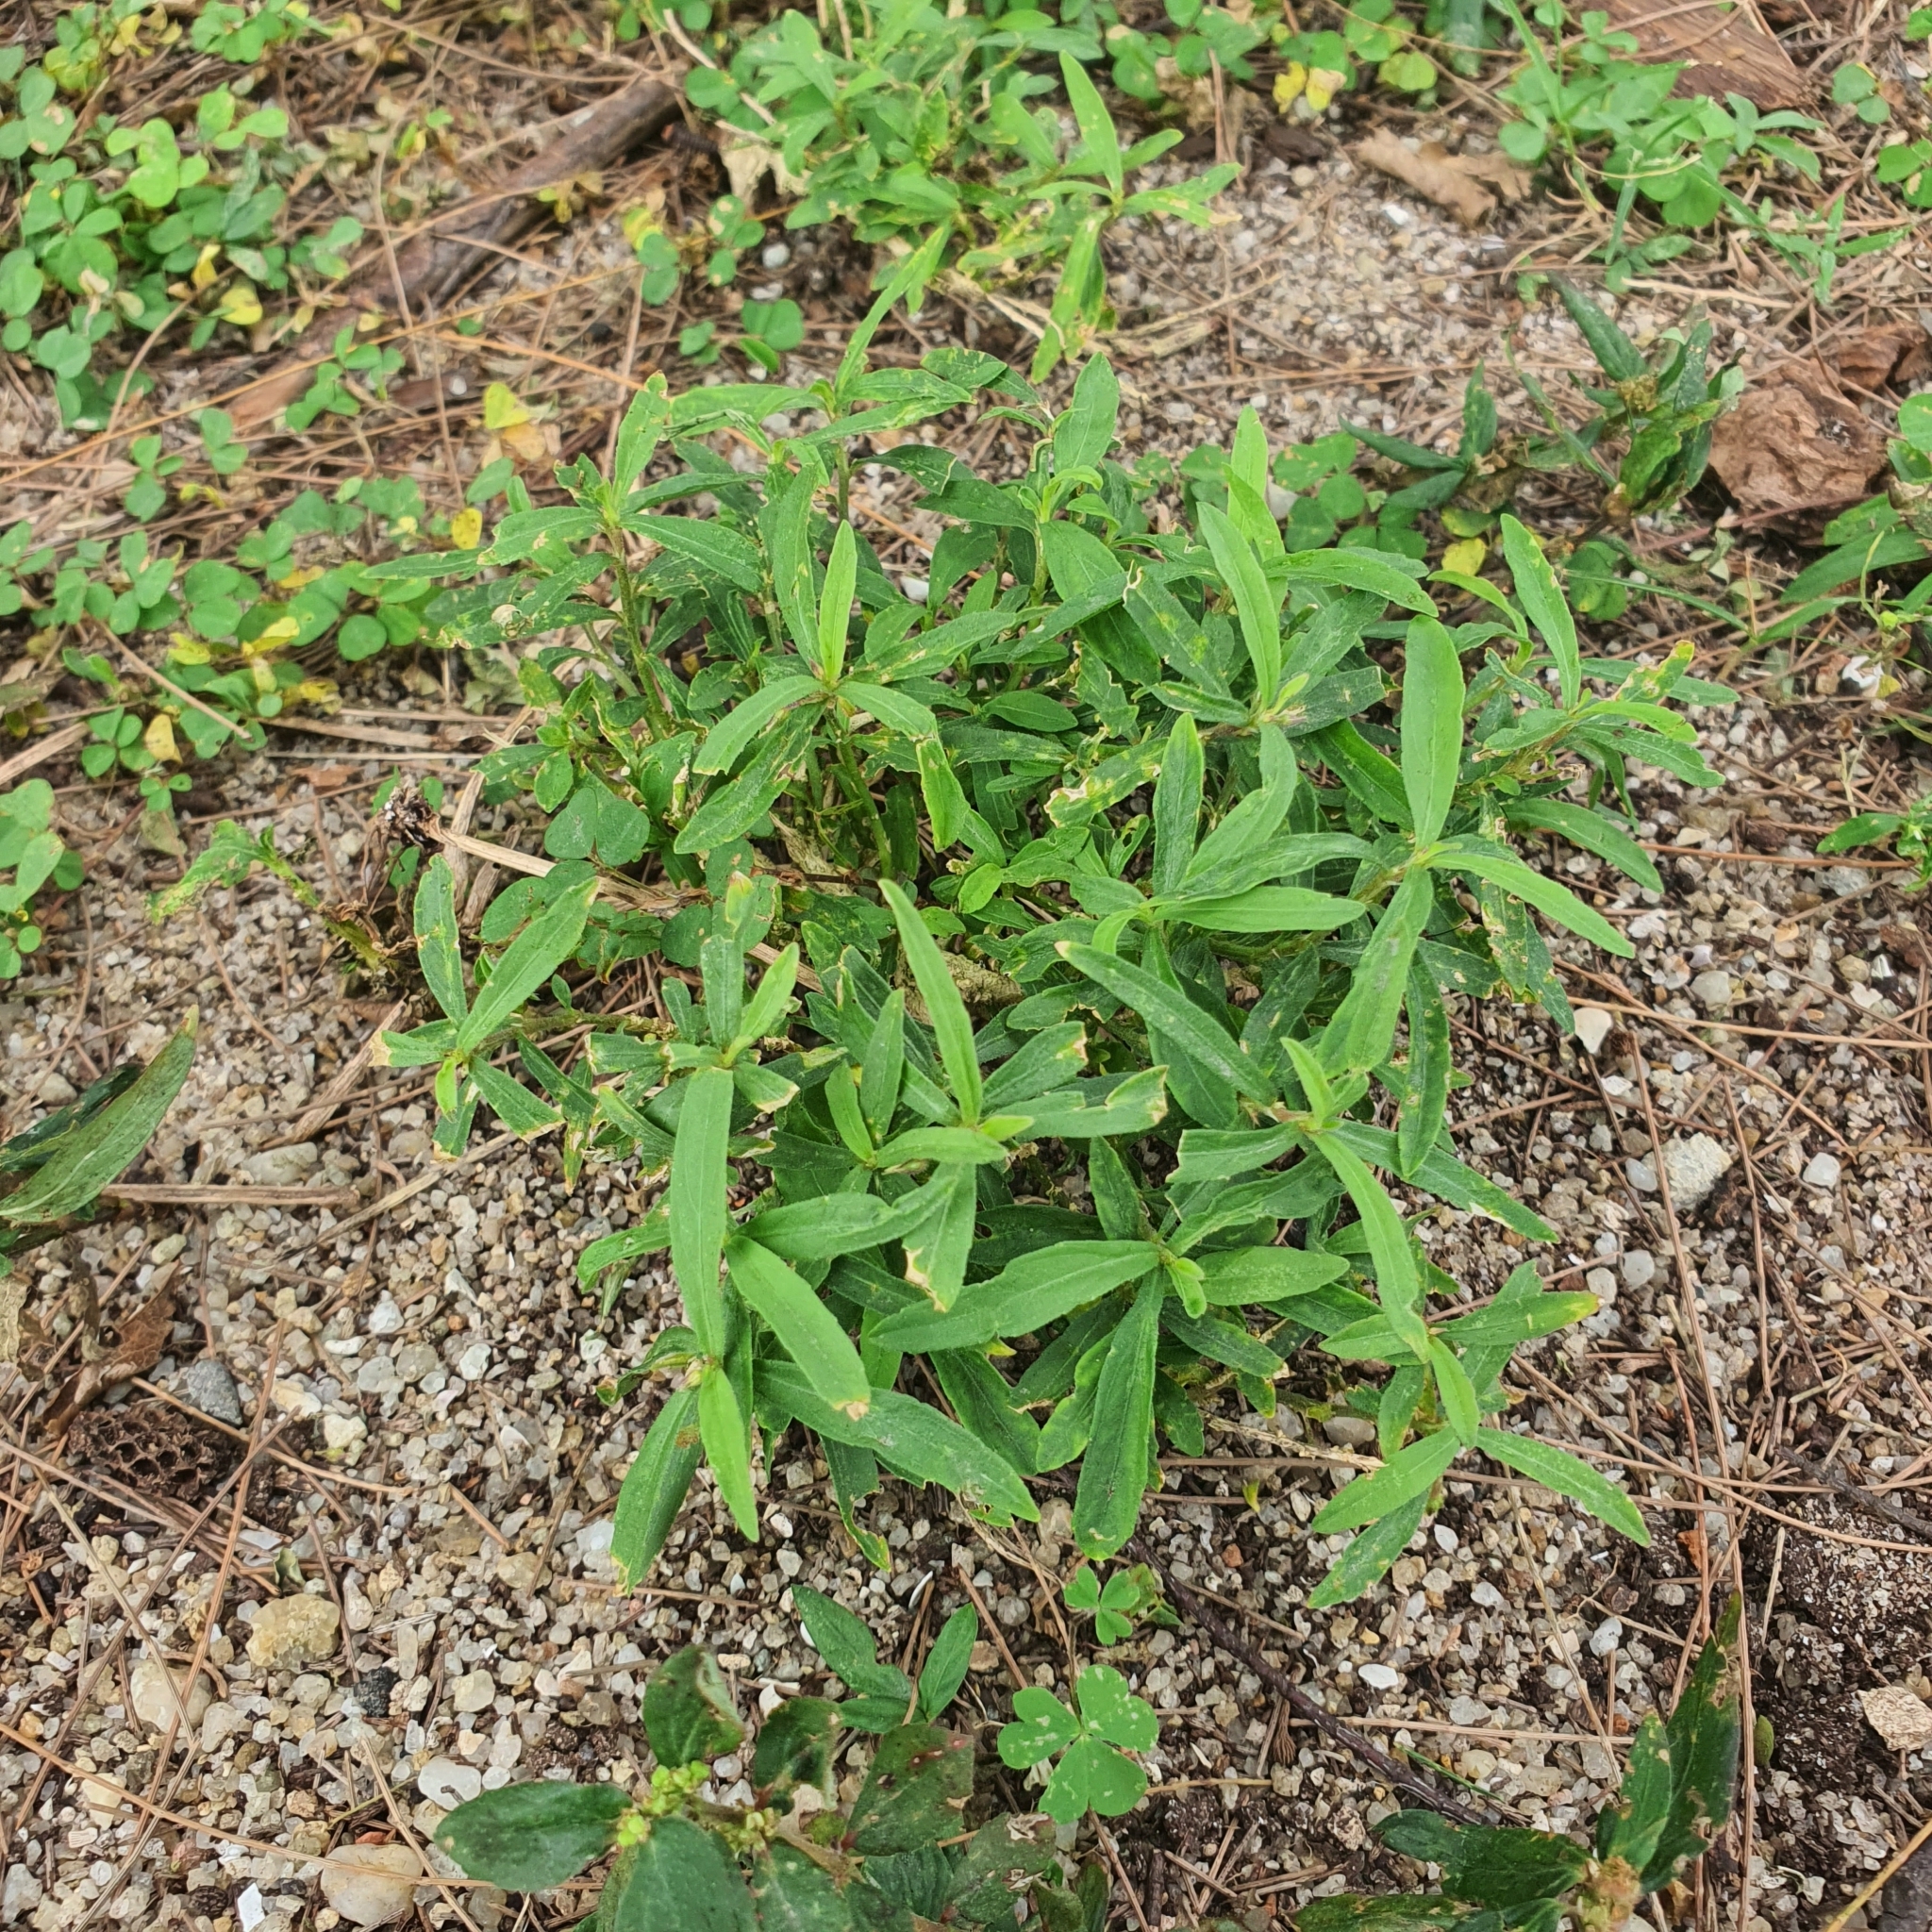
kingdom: Plantae
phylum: Tracheophyta
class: Magnoliopsida
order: Malpighiales
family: Violaceae
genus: Pigea
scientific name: Pigea enneasperma
